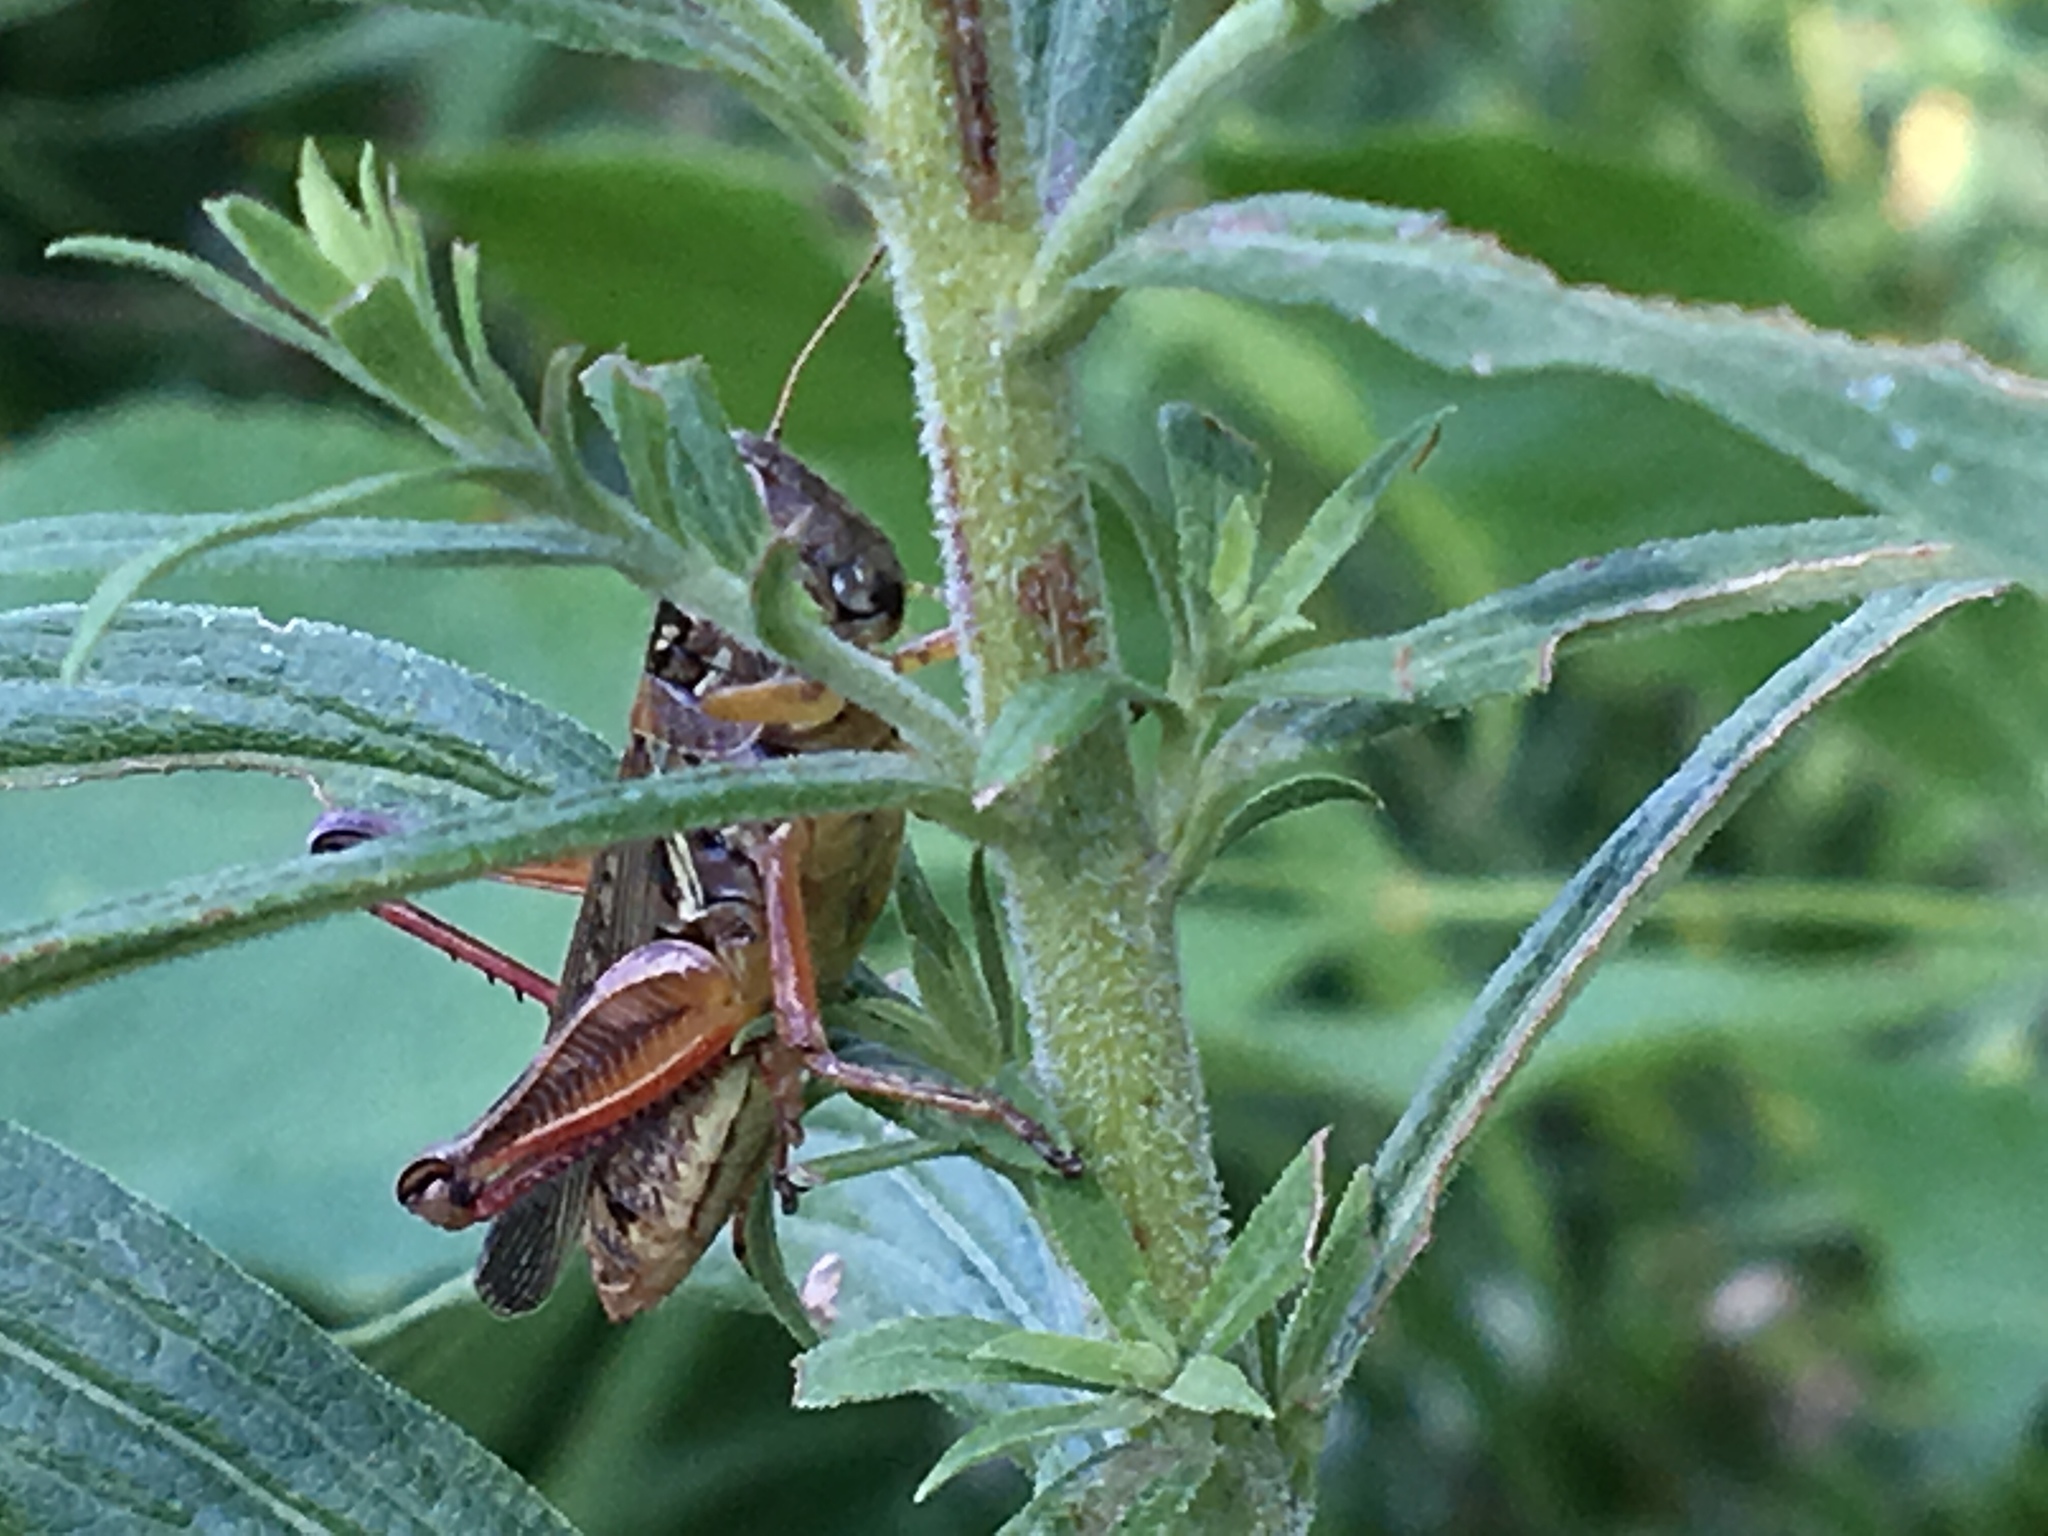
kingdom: Animalia
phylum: Arthropoda
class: Insecta
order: Orthoptera
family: Acrididae
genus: Melanoplus
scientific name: Melanoplus femurrubrum
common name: Red-legged grasshopper
